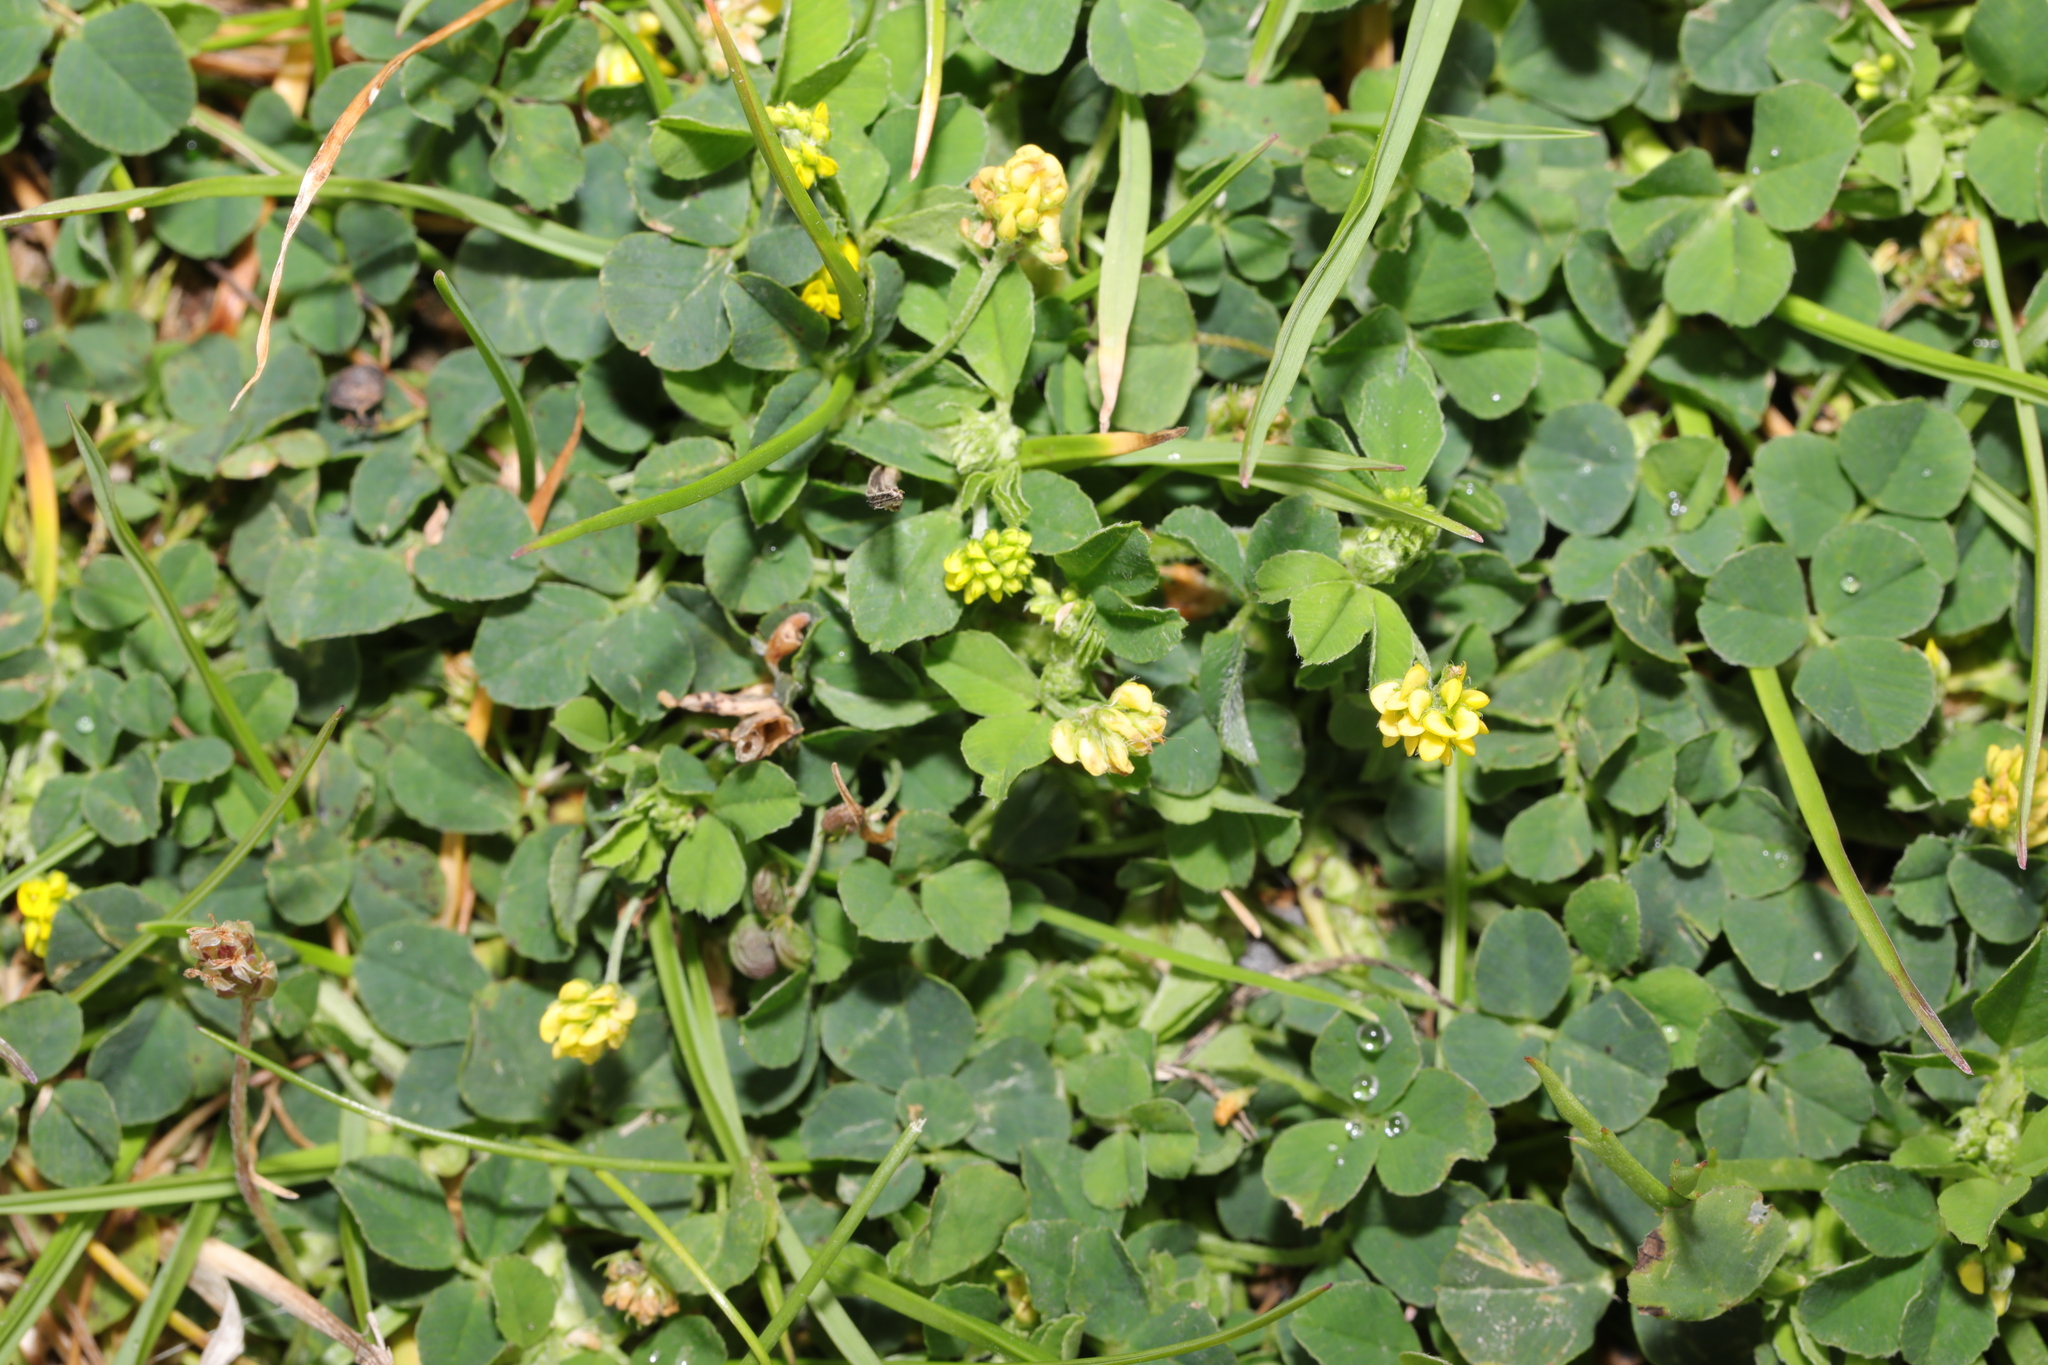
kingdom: Plantae
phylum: Tracheophyta
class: Magnoliopsida
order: Fabales
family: Fabaceae
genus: Medicago
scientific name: Medicago lupulina
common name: Black medick
